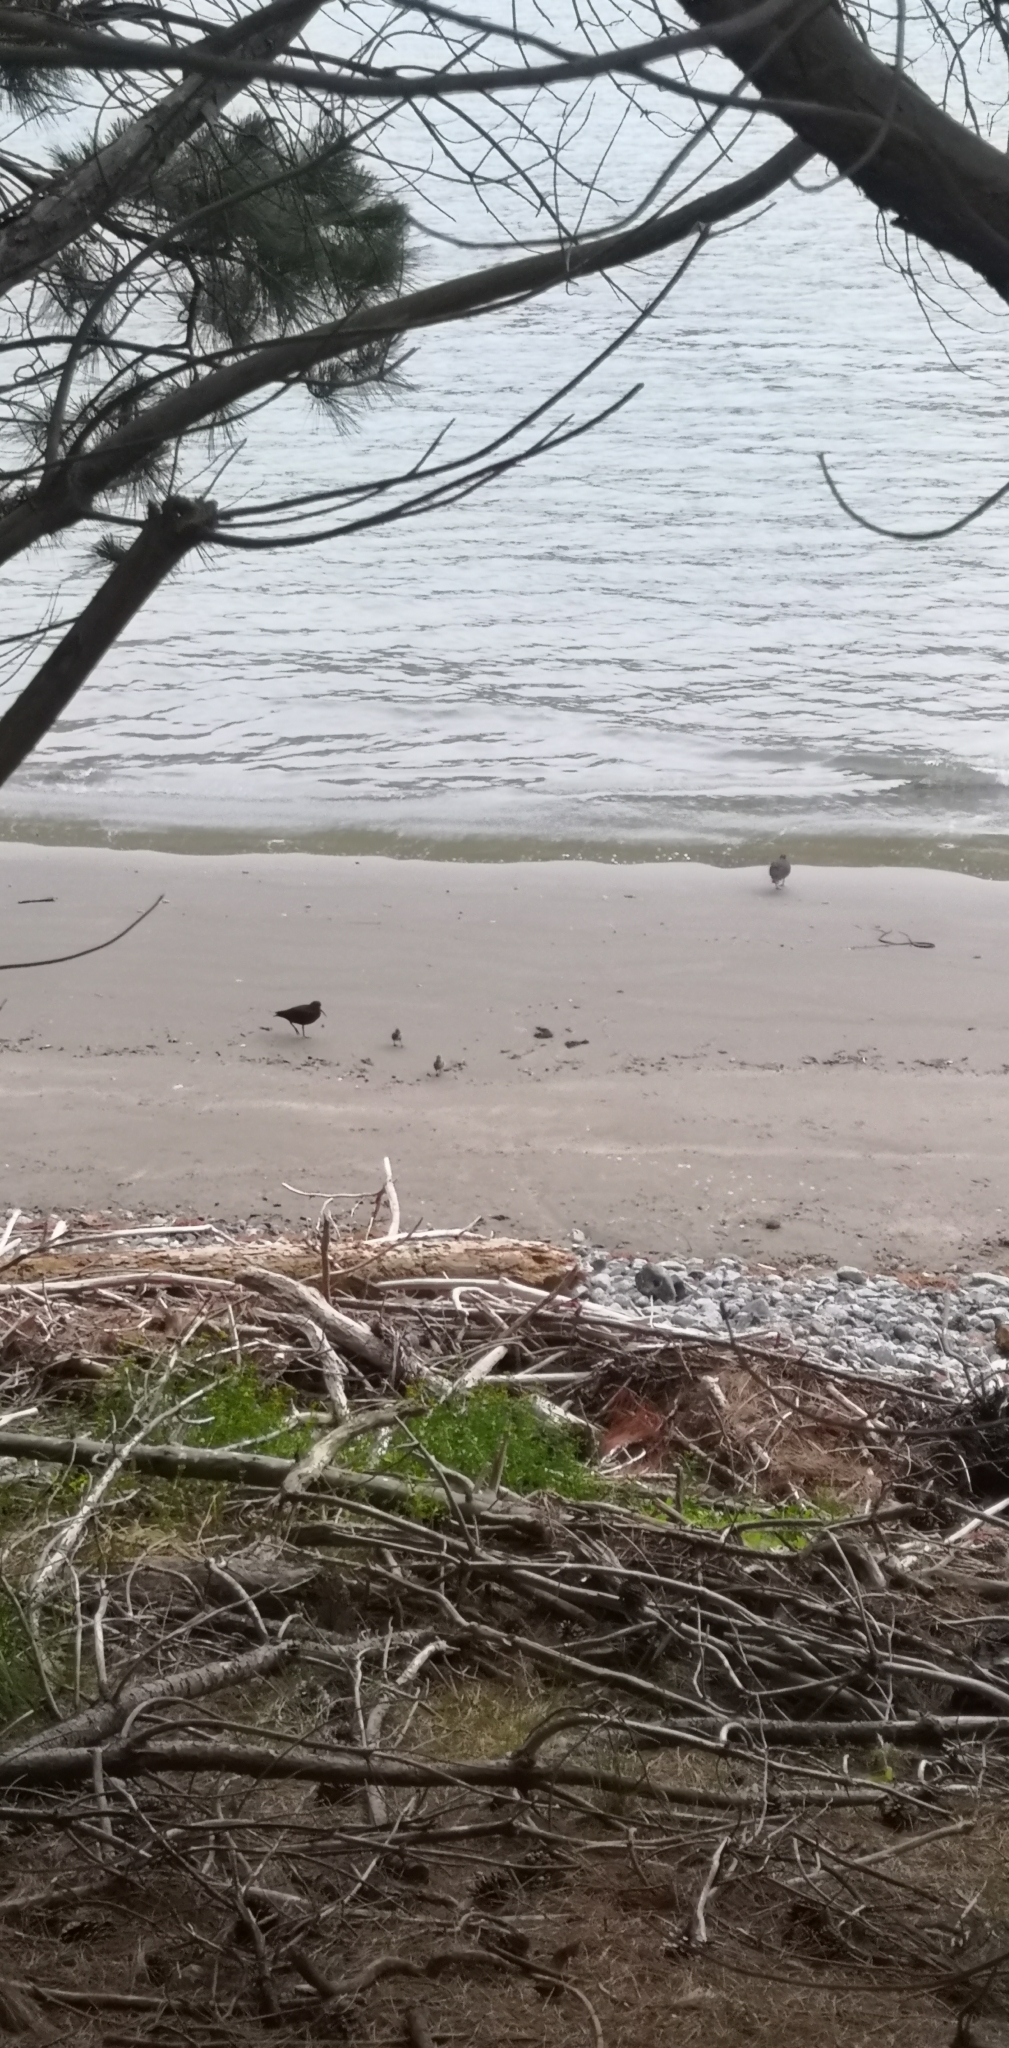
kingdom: Animalia
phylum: Chordata
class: Aves
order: Charadriiformes
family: Haematopodidae
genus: Haematopus
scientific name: Haematopus unicolor
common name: Variable oystercatcher
